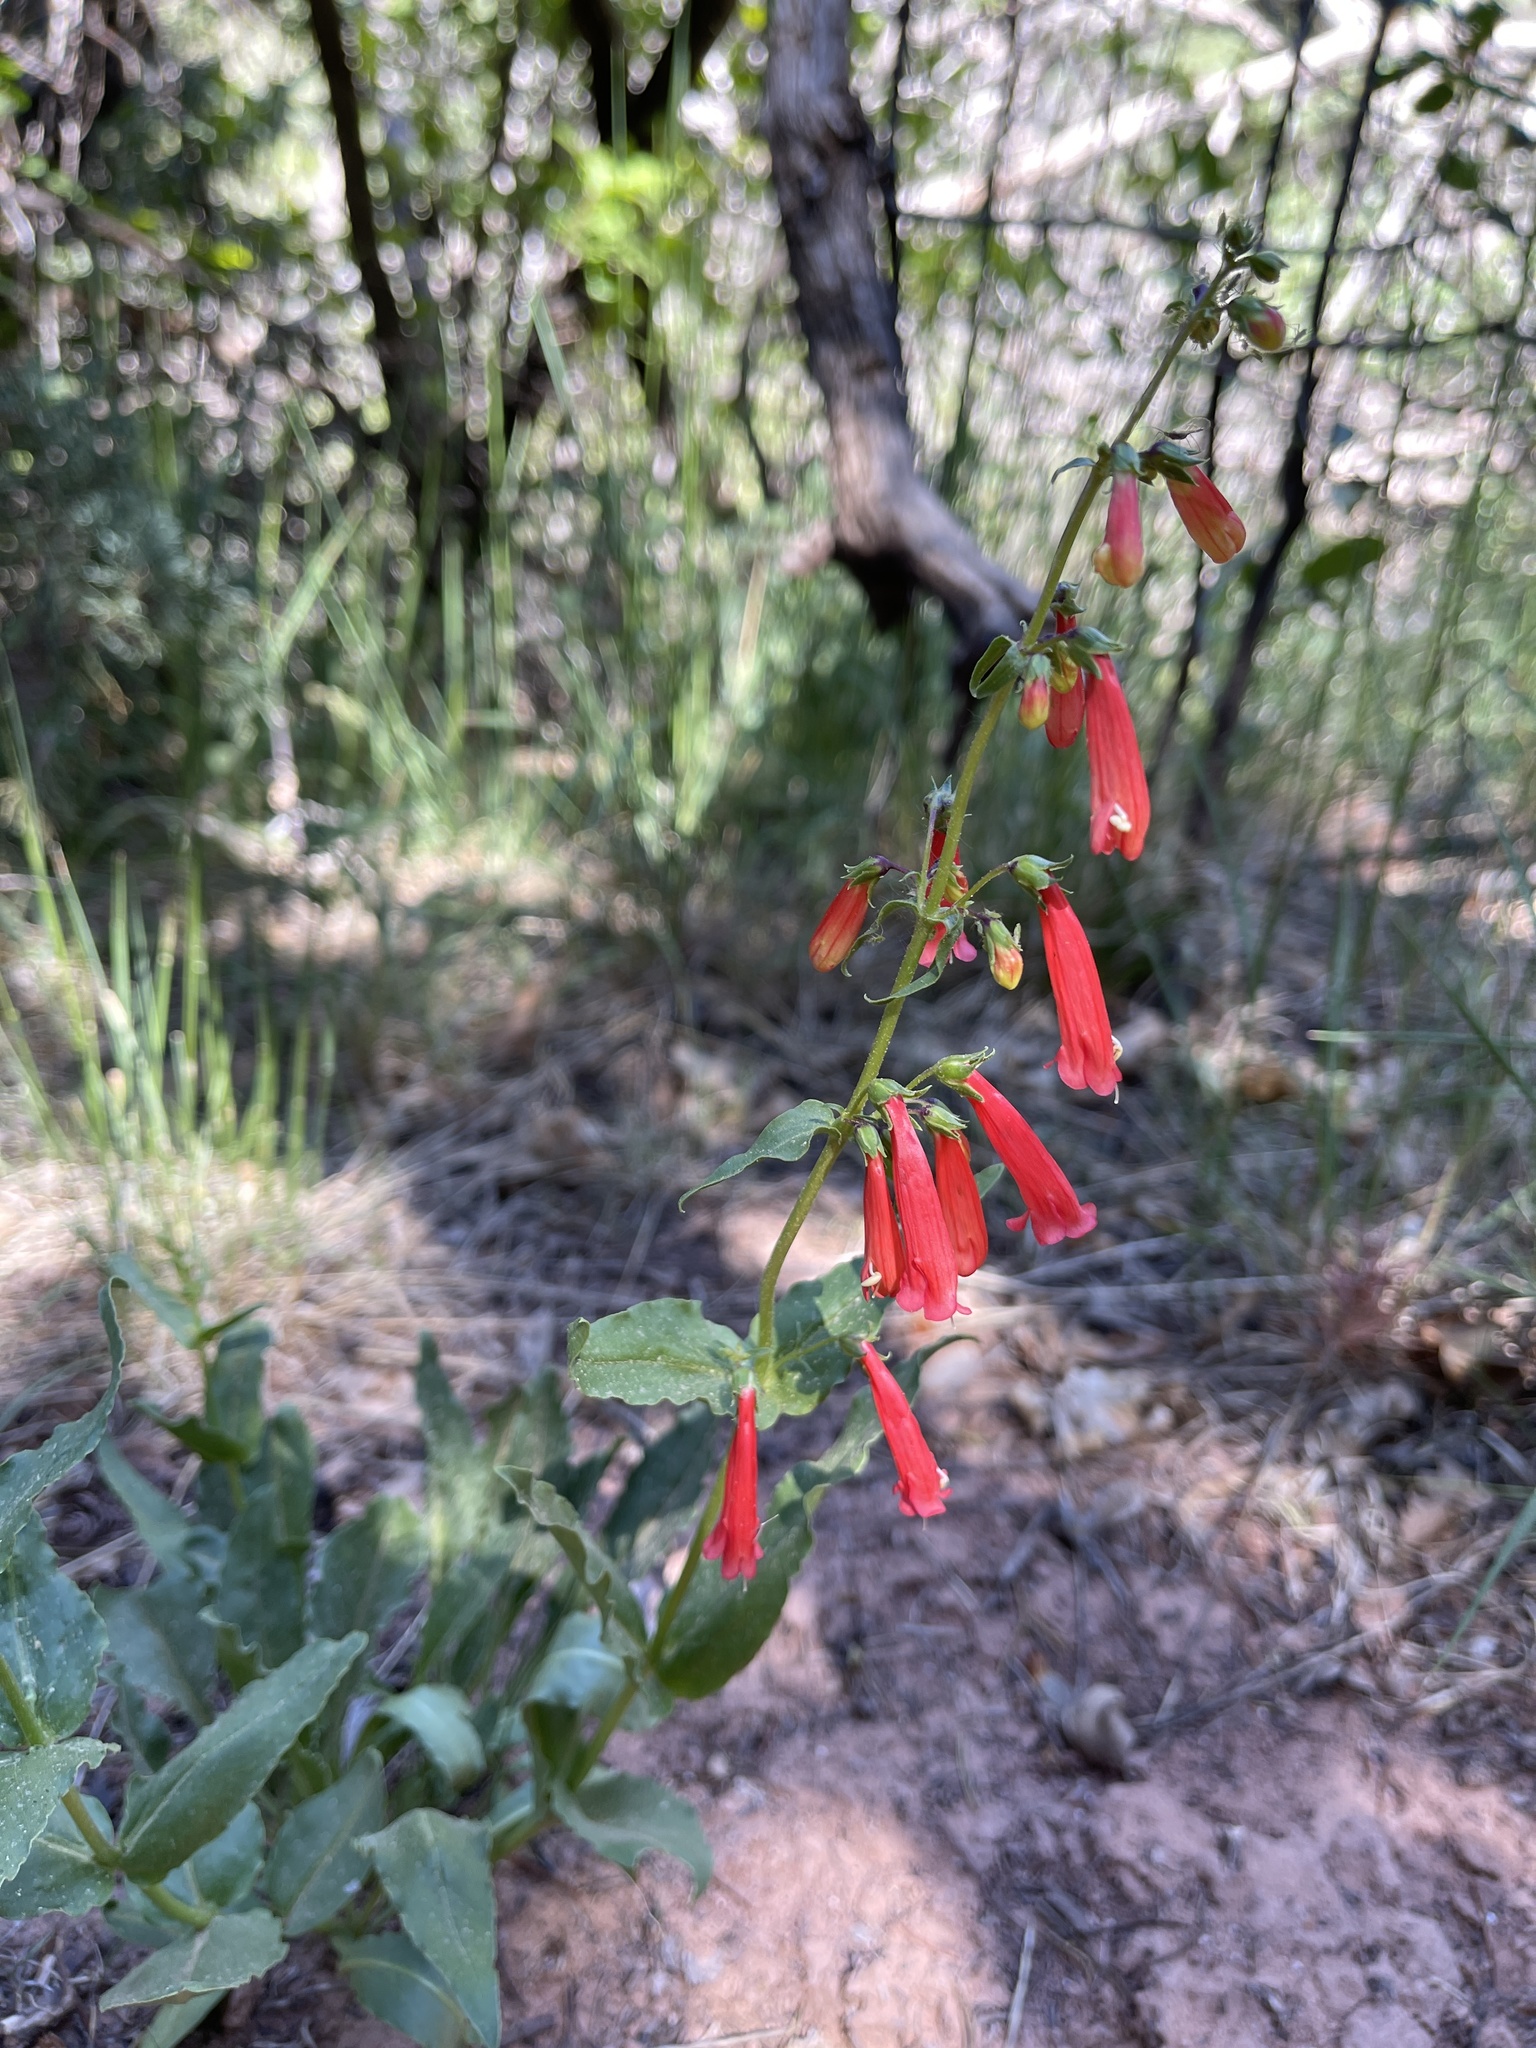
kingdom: Plantae
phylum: Tracheophyta
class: Magnoliopsida
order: Lamiales
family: Plantaginaceae
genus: Penstemon
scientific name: Penstemon eatonii
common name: Eaton's penstemon
